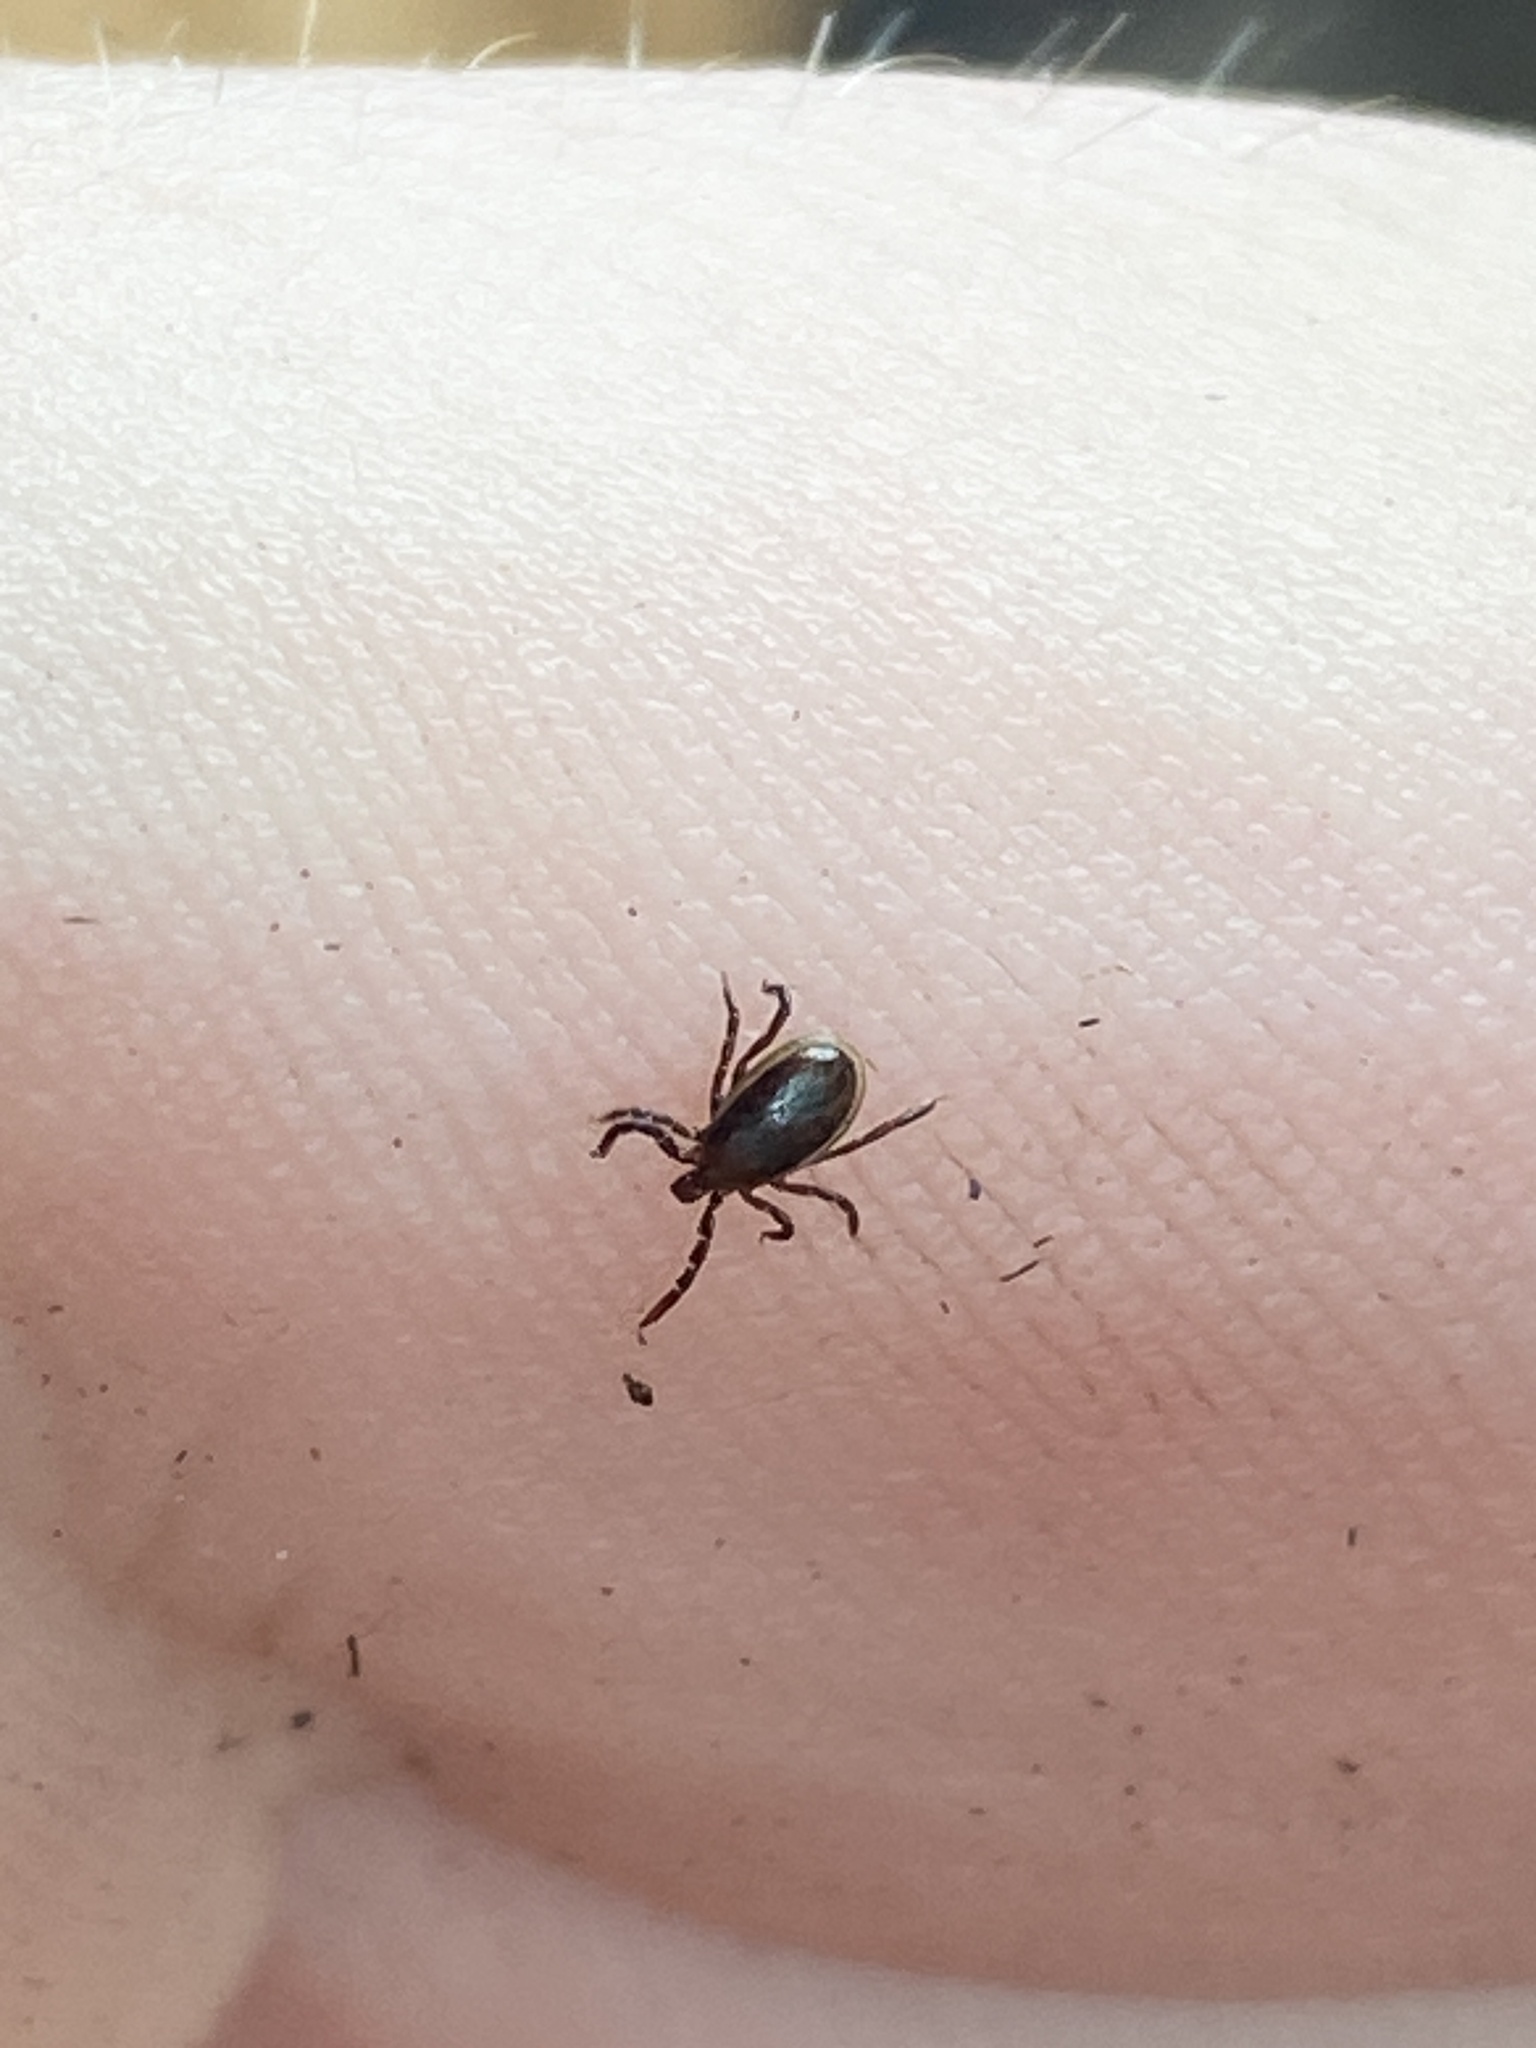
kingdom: Animalia
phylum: Arthropoda
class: Arachnida
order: Ixodida
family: Ixodidae
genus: Ixodes
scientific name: Ixodes scapularis
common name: Black legged tick
